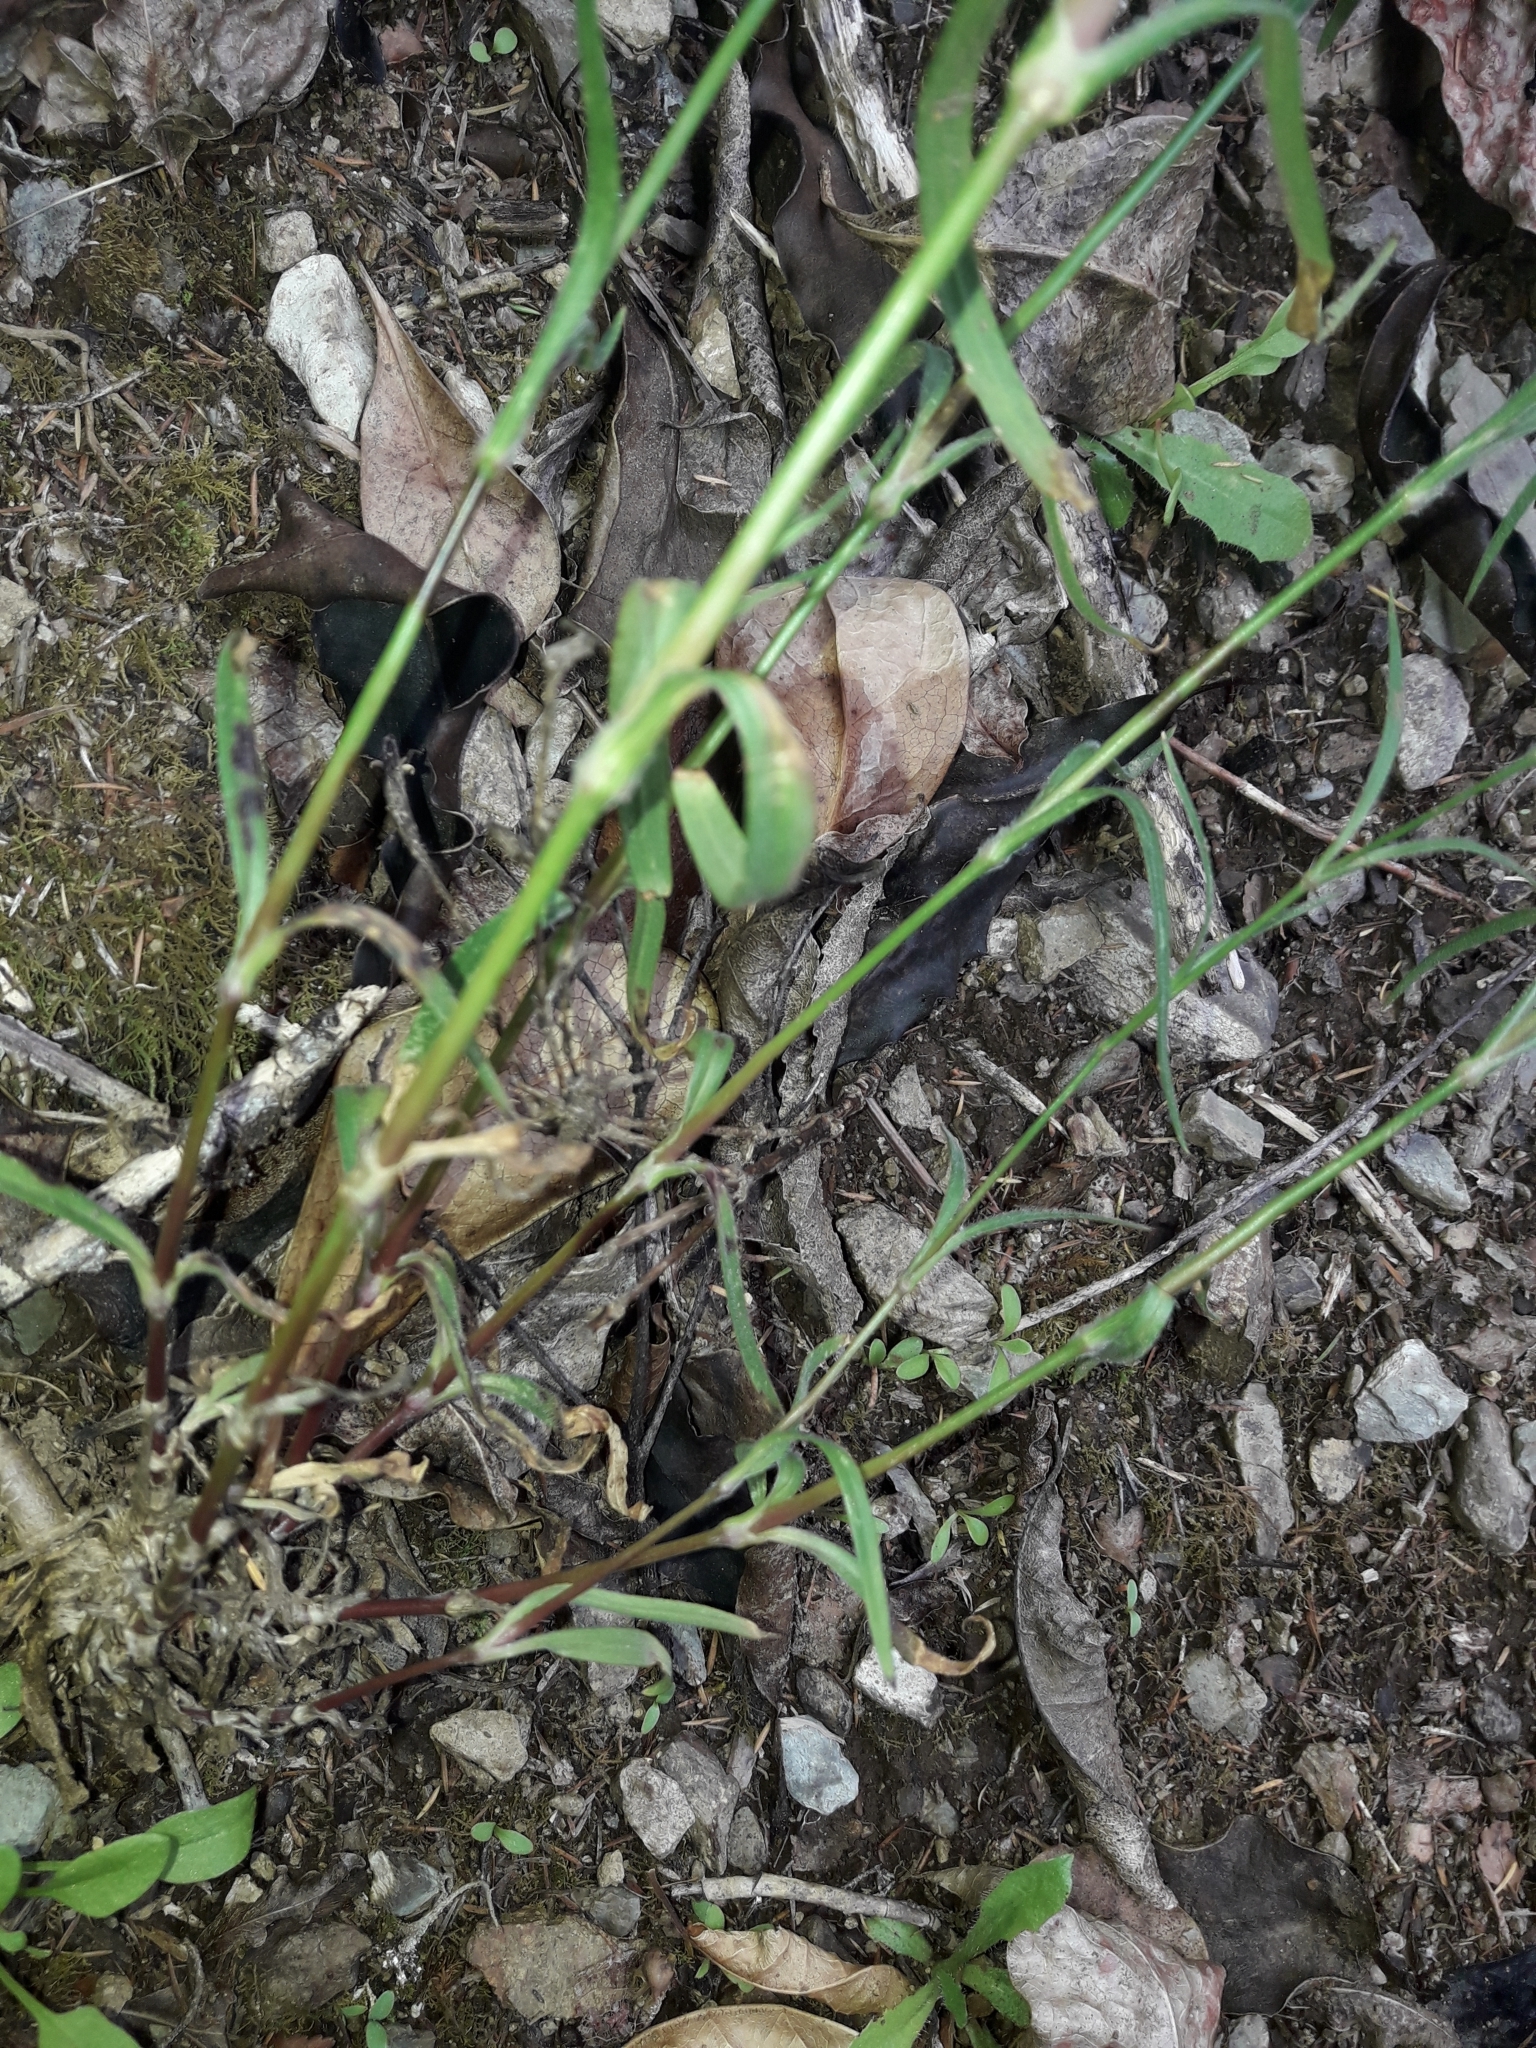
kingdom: Plantae
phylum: Tracheophyta
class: Magnoliopsida
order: Caryophyllales
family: Caryophyllaceae
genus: Dianthus
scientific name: Dianthus armeria
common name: Deptford pink
